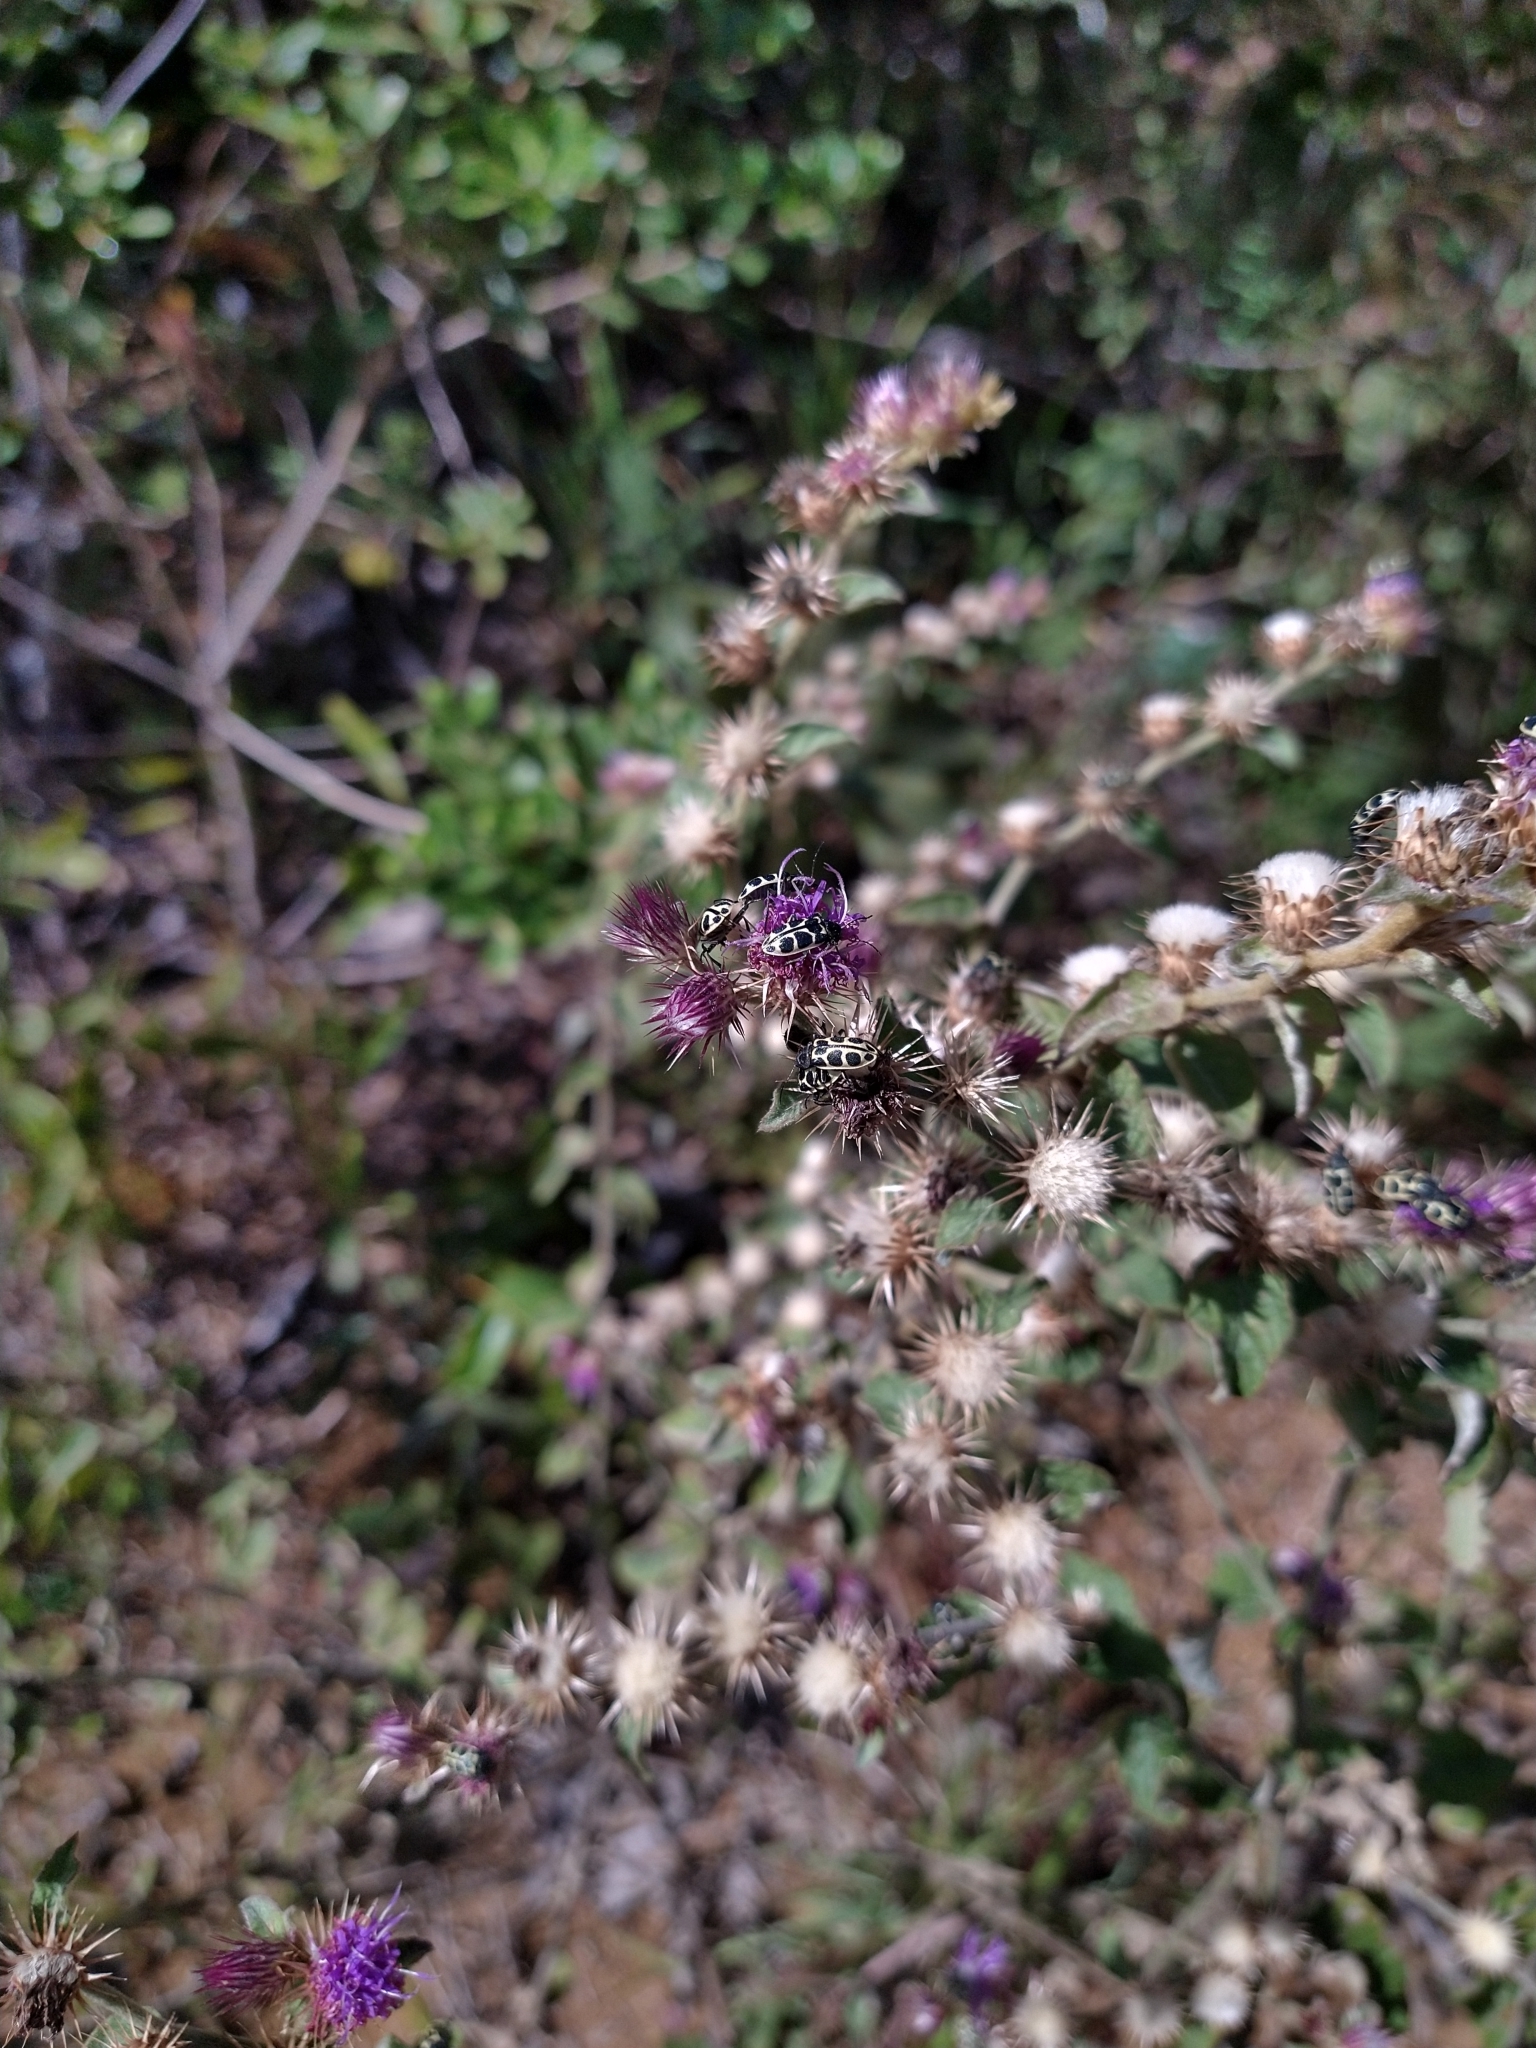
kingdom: Animalia
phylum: Arthropoda
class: Insecta
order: Coleoptera
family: Melyridae
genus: Astylus
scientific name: Astylus
